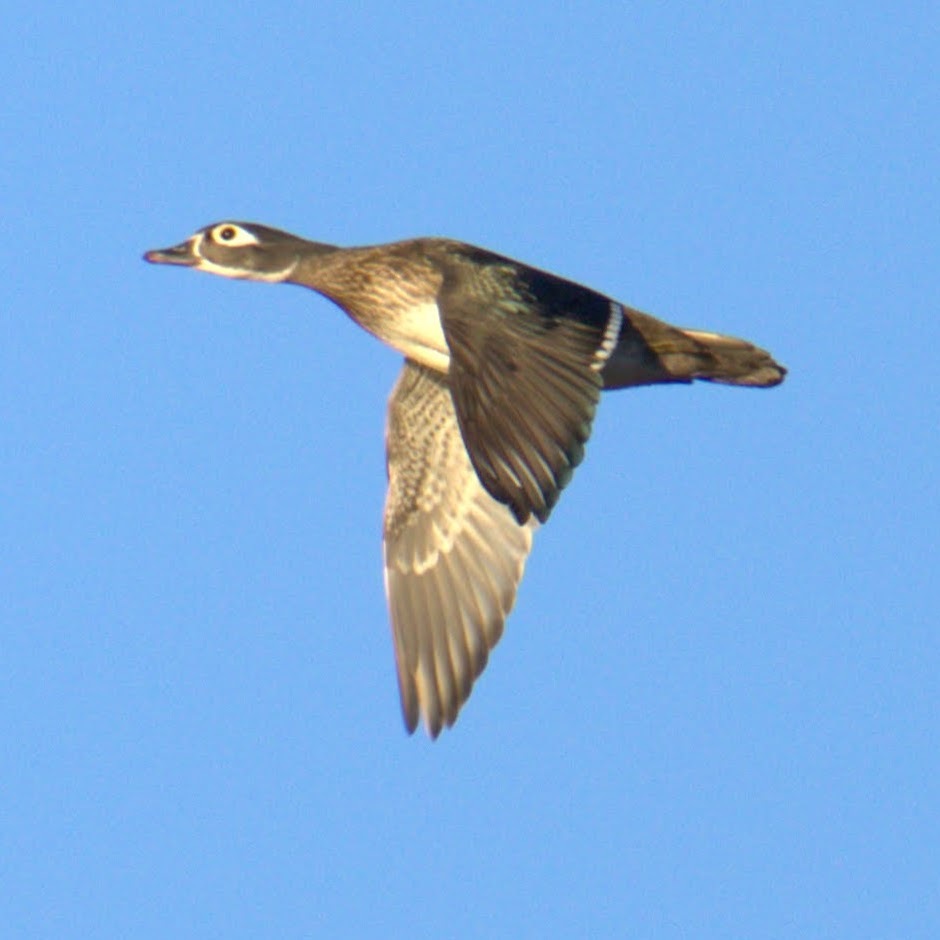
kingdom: Animalia
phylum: Chordata
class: Aves
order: Anseriformes
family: Anatidae
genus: Aix
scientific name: Aix sponsa
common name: Wood duck
